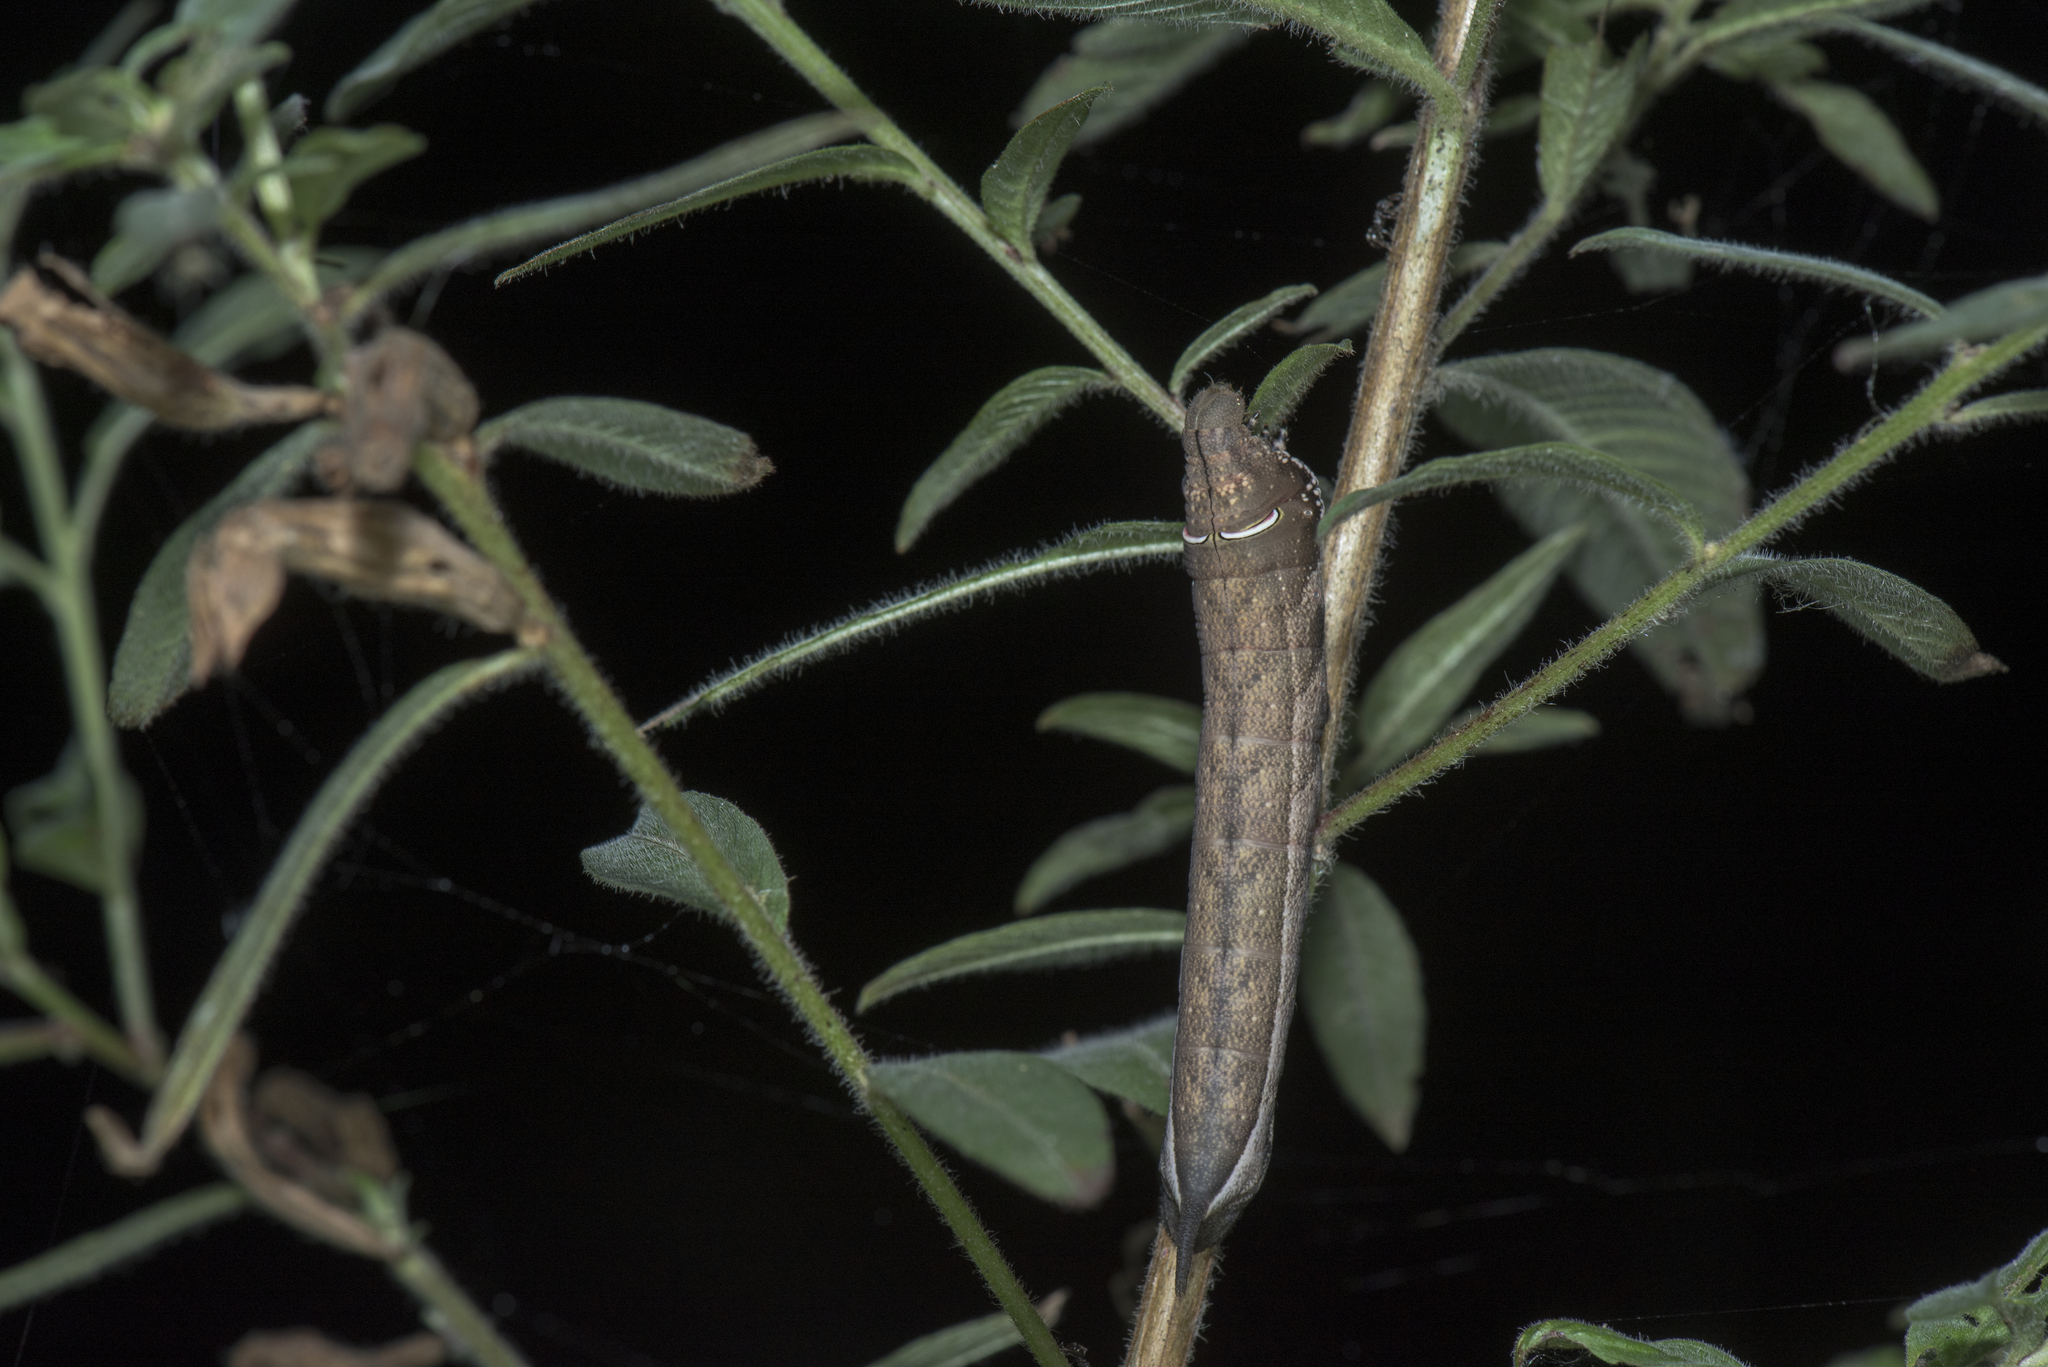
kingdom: Animalia
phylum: Arthropoda
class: Insecta
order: Lepidoptera
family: Sphingidae
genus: Theretra
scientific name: Theretra rhesus
